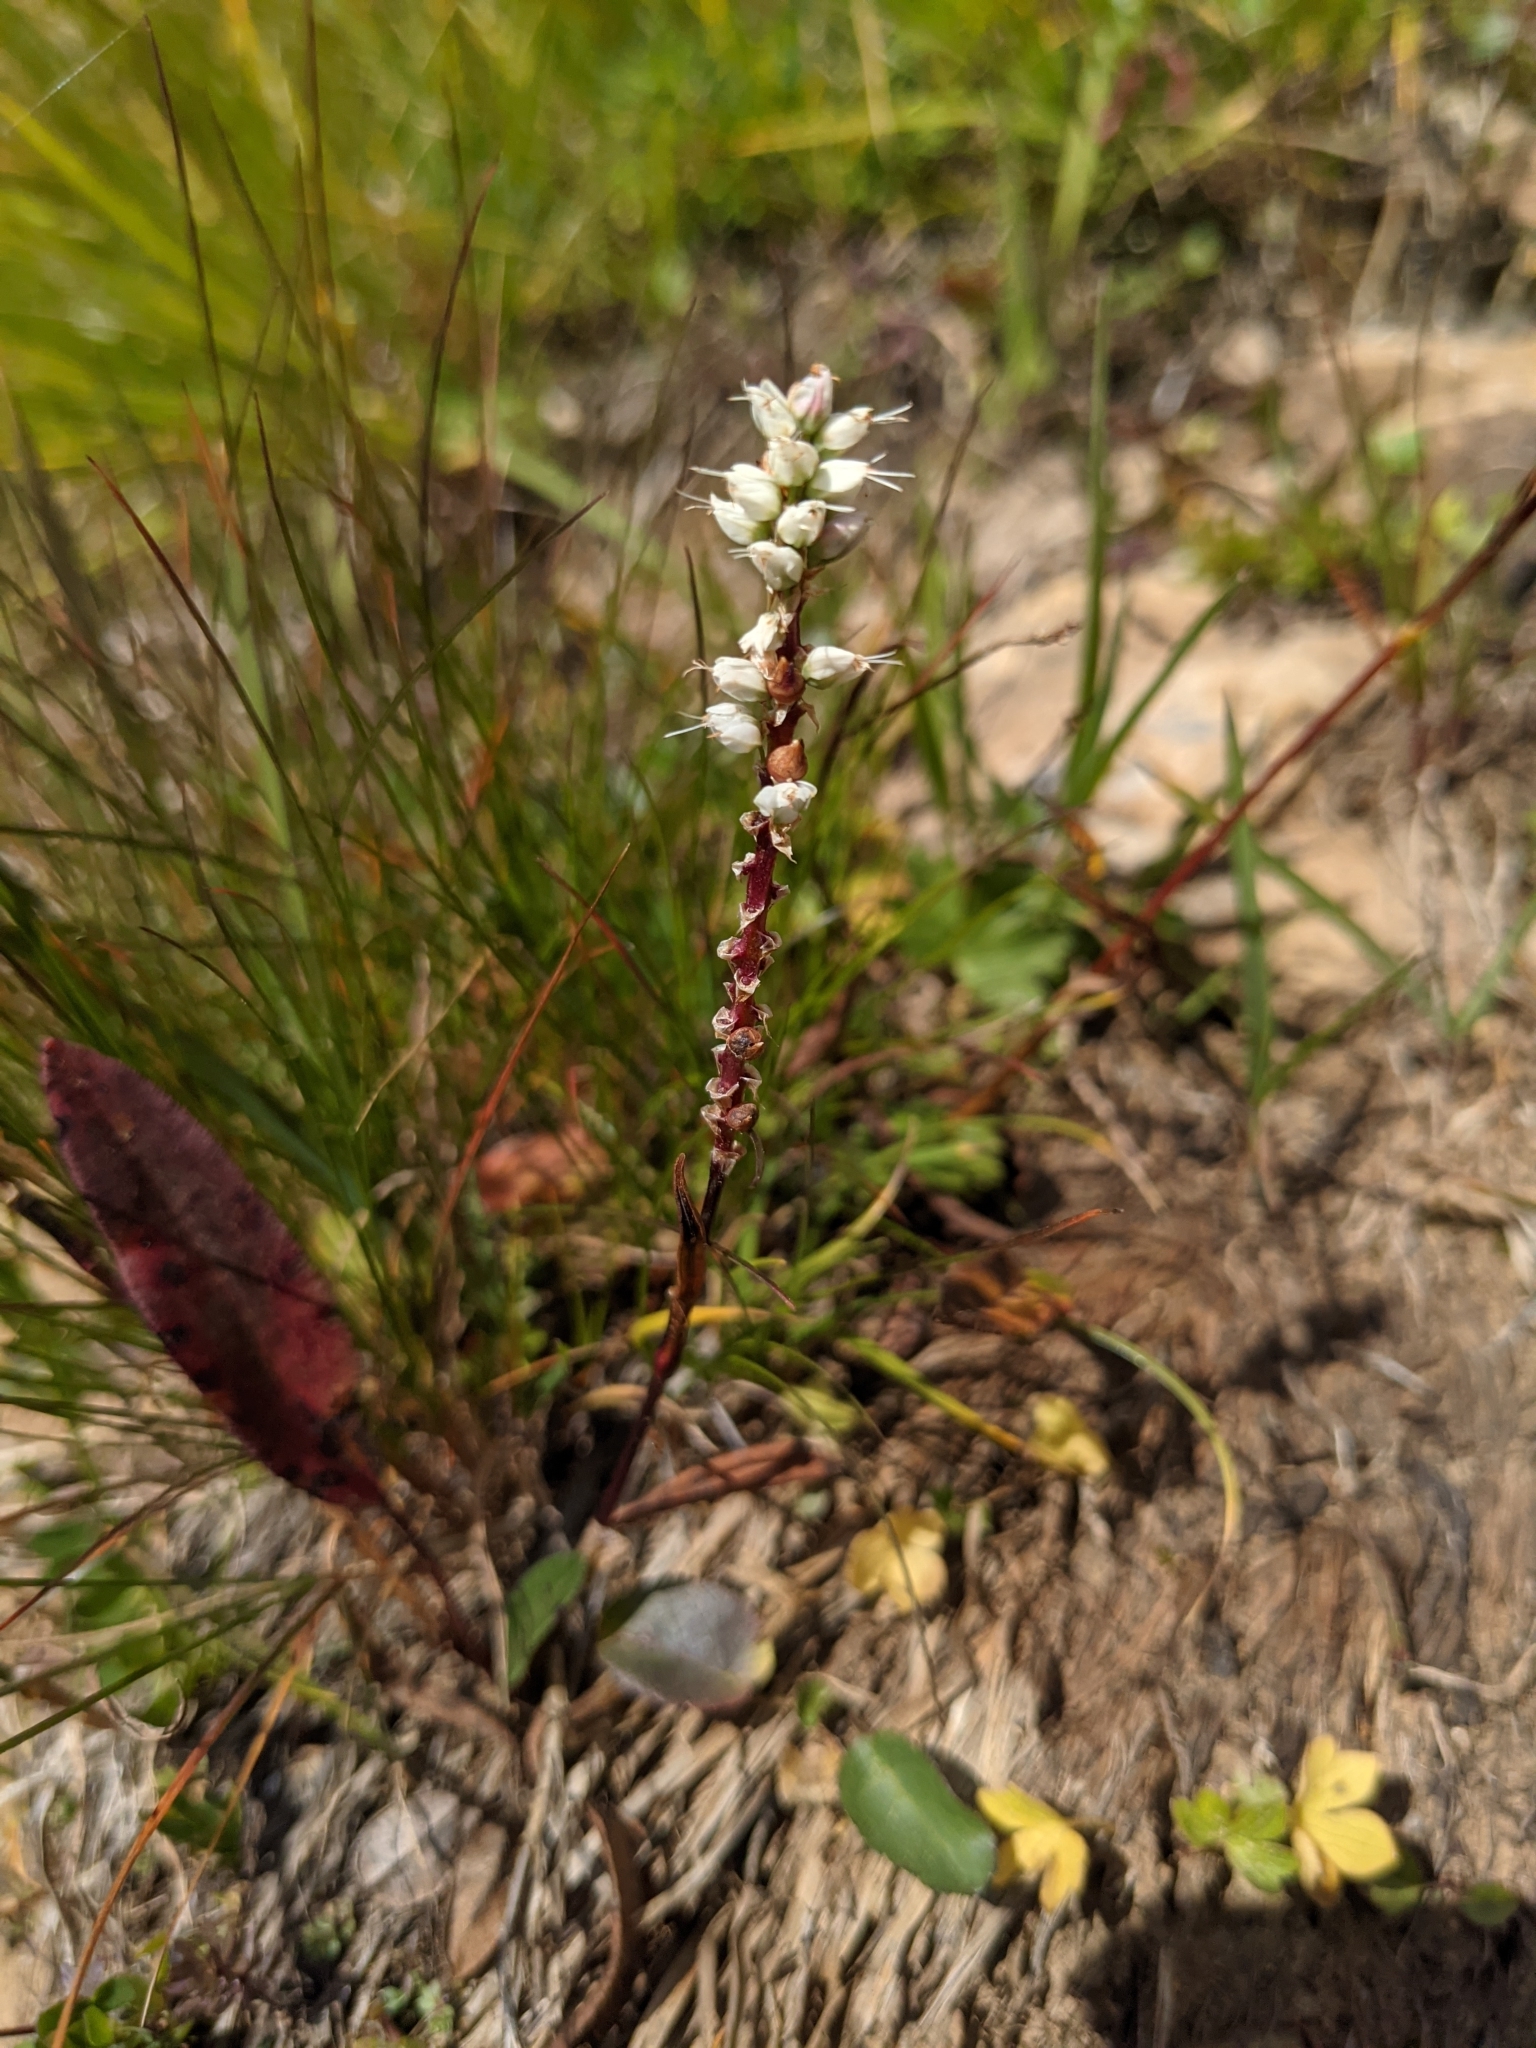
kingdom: Plantae
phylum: Tracheophyta
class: Magnoliopsida
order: Caryophyllales
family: Polygonaceae
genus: Bistorta
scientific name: Bistorta vivipara
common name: Alpine bistort
